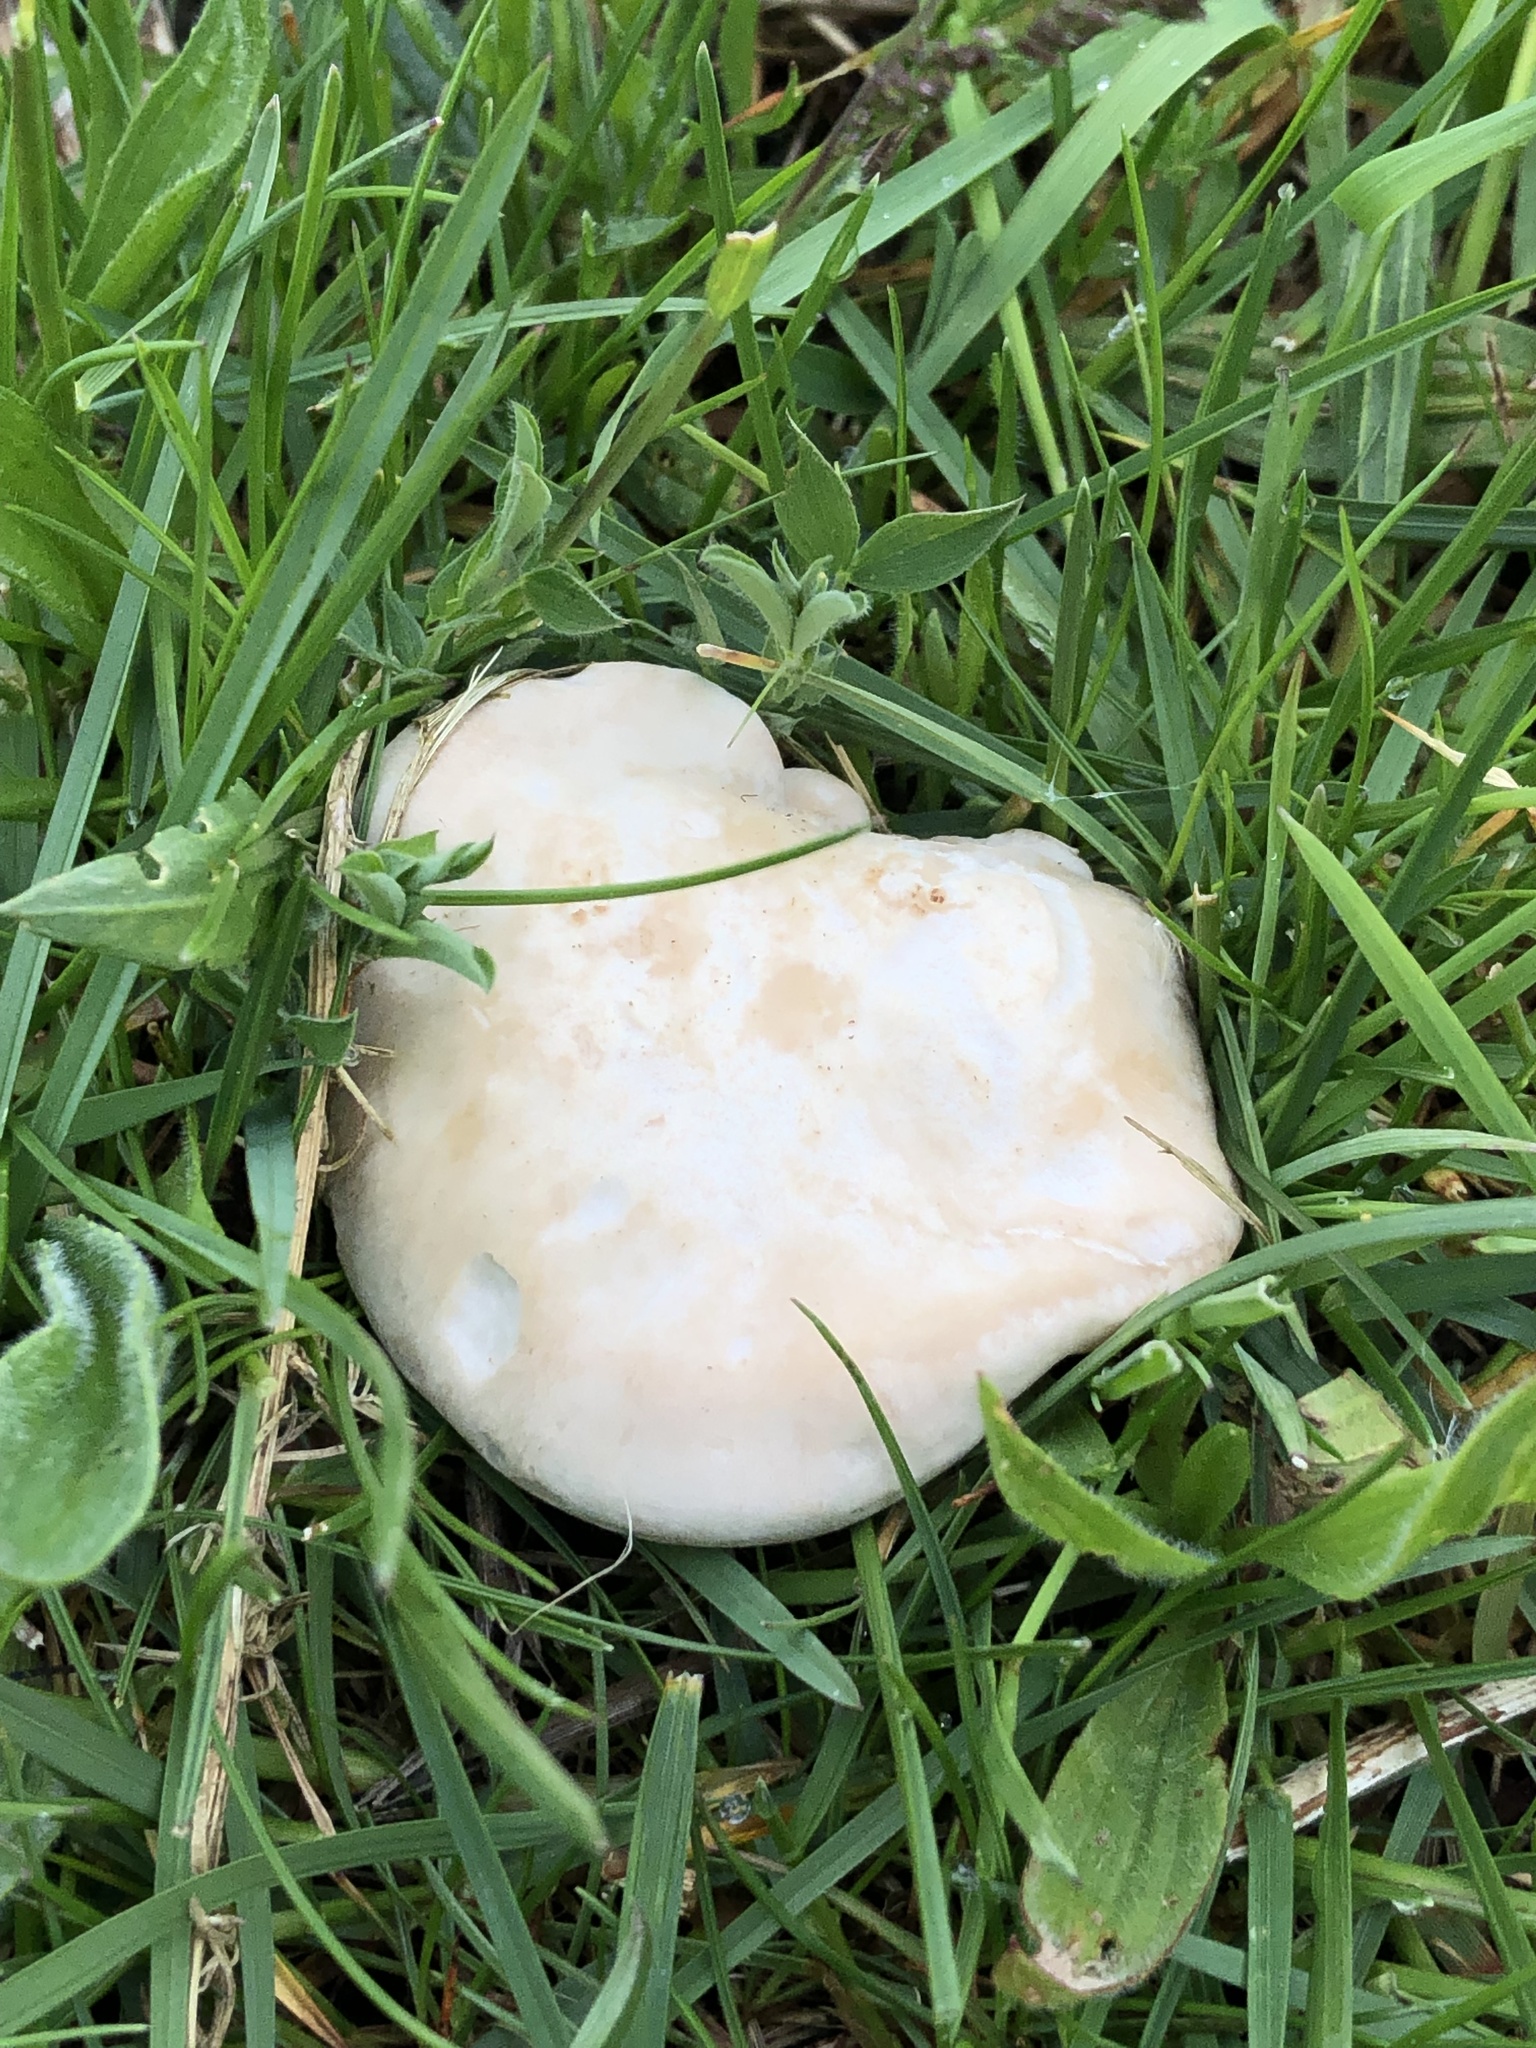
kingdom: Fungi
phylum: Basidiomycota
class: Agaricomycetes
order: Agaricales
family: Lyophyllaceae
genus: Calocybe
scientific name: Calocybe gambosa
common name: St. george's mushroom
